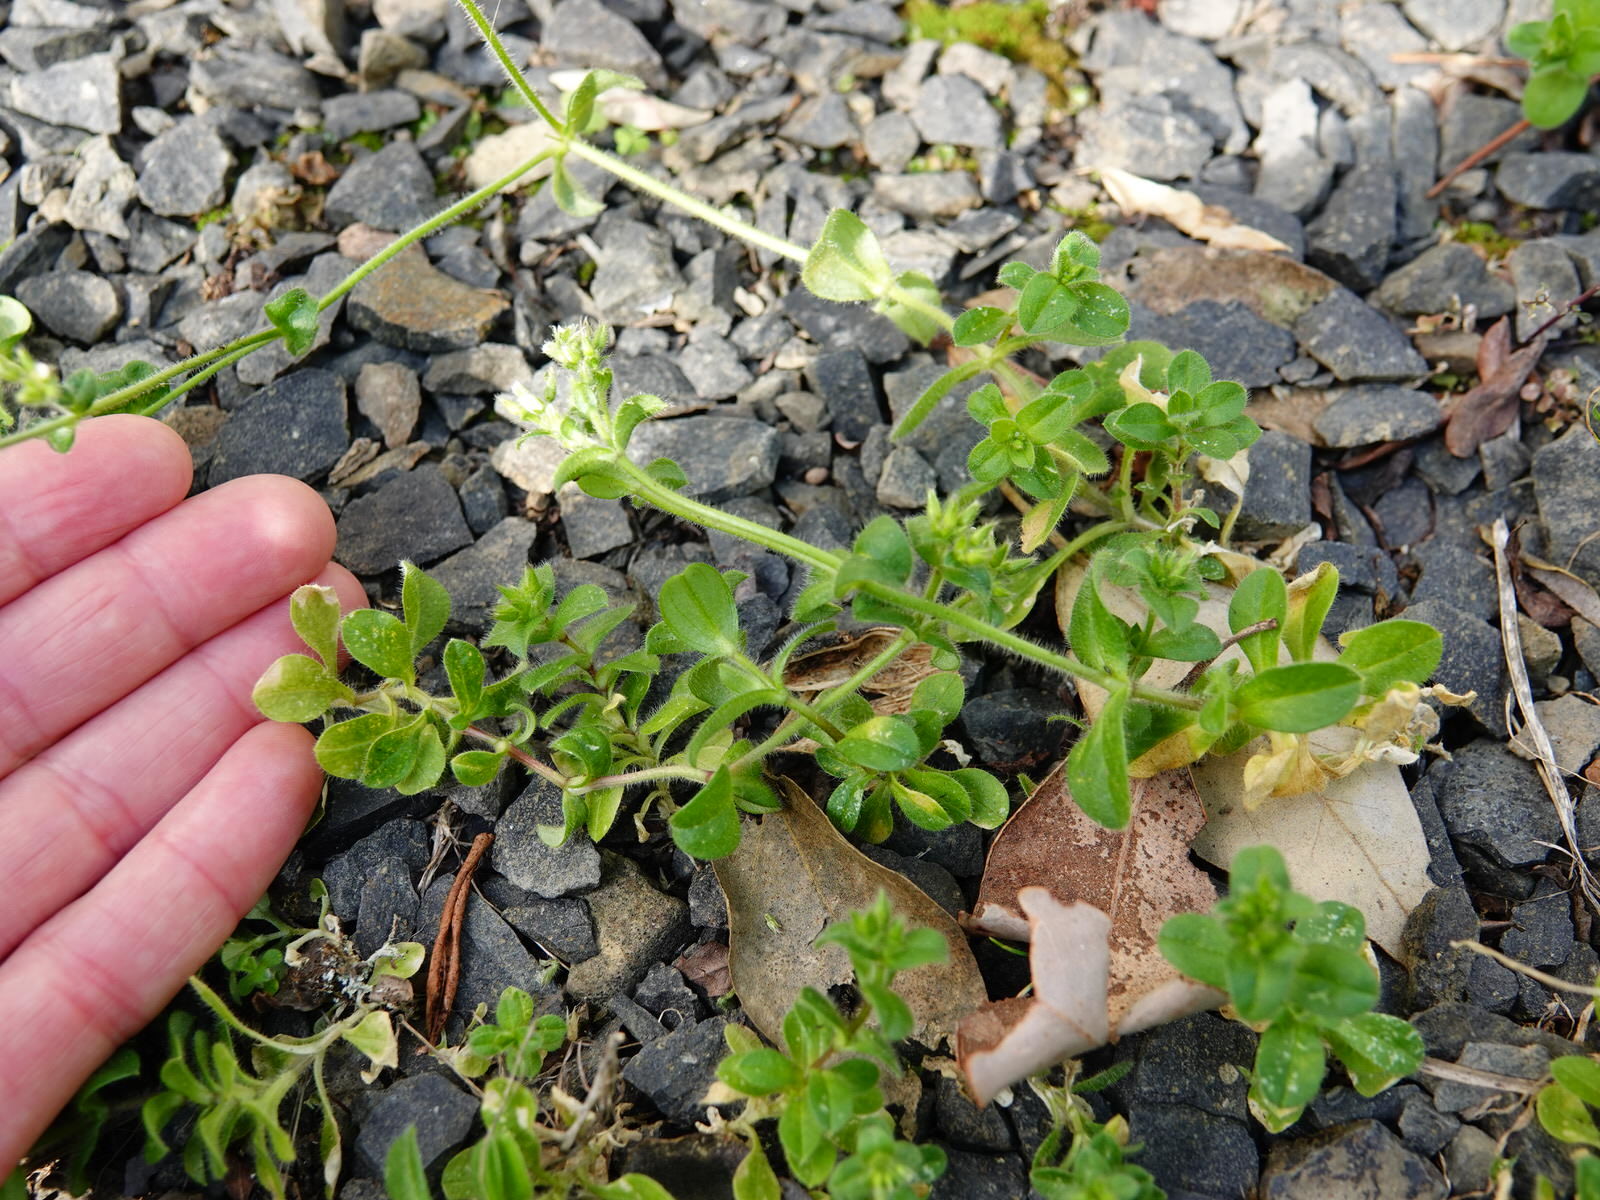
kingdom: Plantae
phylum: Tracheophyta
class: Magnoliopsida
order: Caryophyllales
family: Caryophyllaceae
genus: Cerastium
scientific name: Cerastium glomeratum
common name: Sticky chickweed
